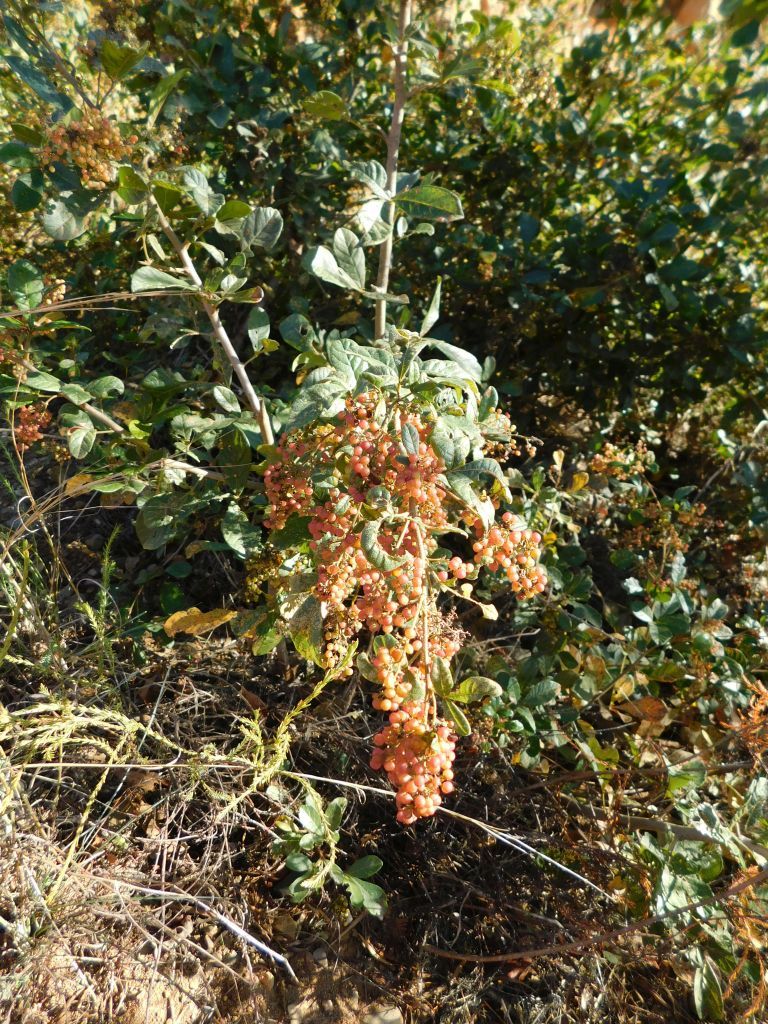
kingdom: Plantae
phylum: Tracheophyta
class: Magnoliopsida
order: Sapindales
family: Anacardiaceae
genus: Searsia
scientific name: Searsia rehmanniana
